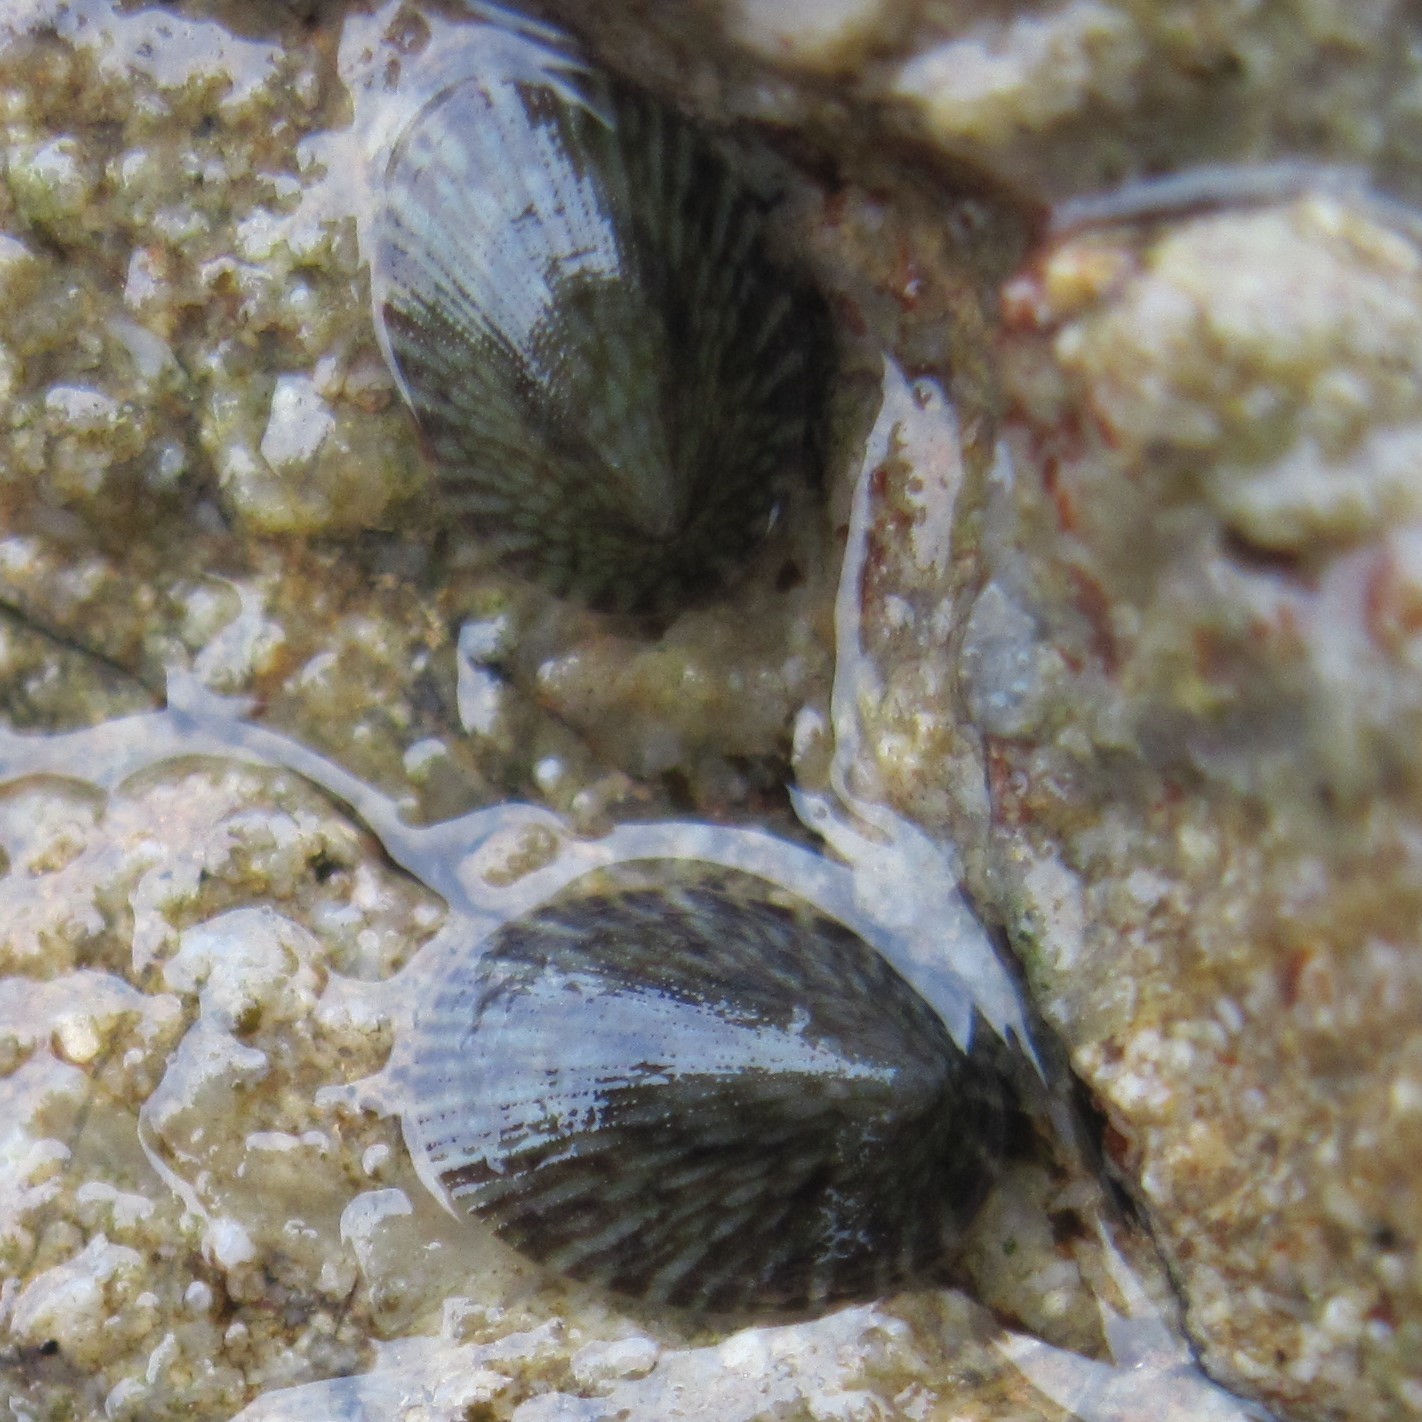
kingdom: Animalia
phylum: Mollusca
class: Gastropoda
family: Lottiidae
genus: Notoacmea
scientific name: Notoacmea elongata
